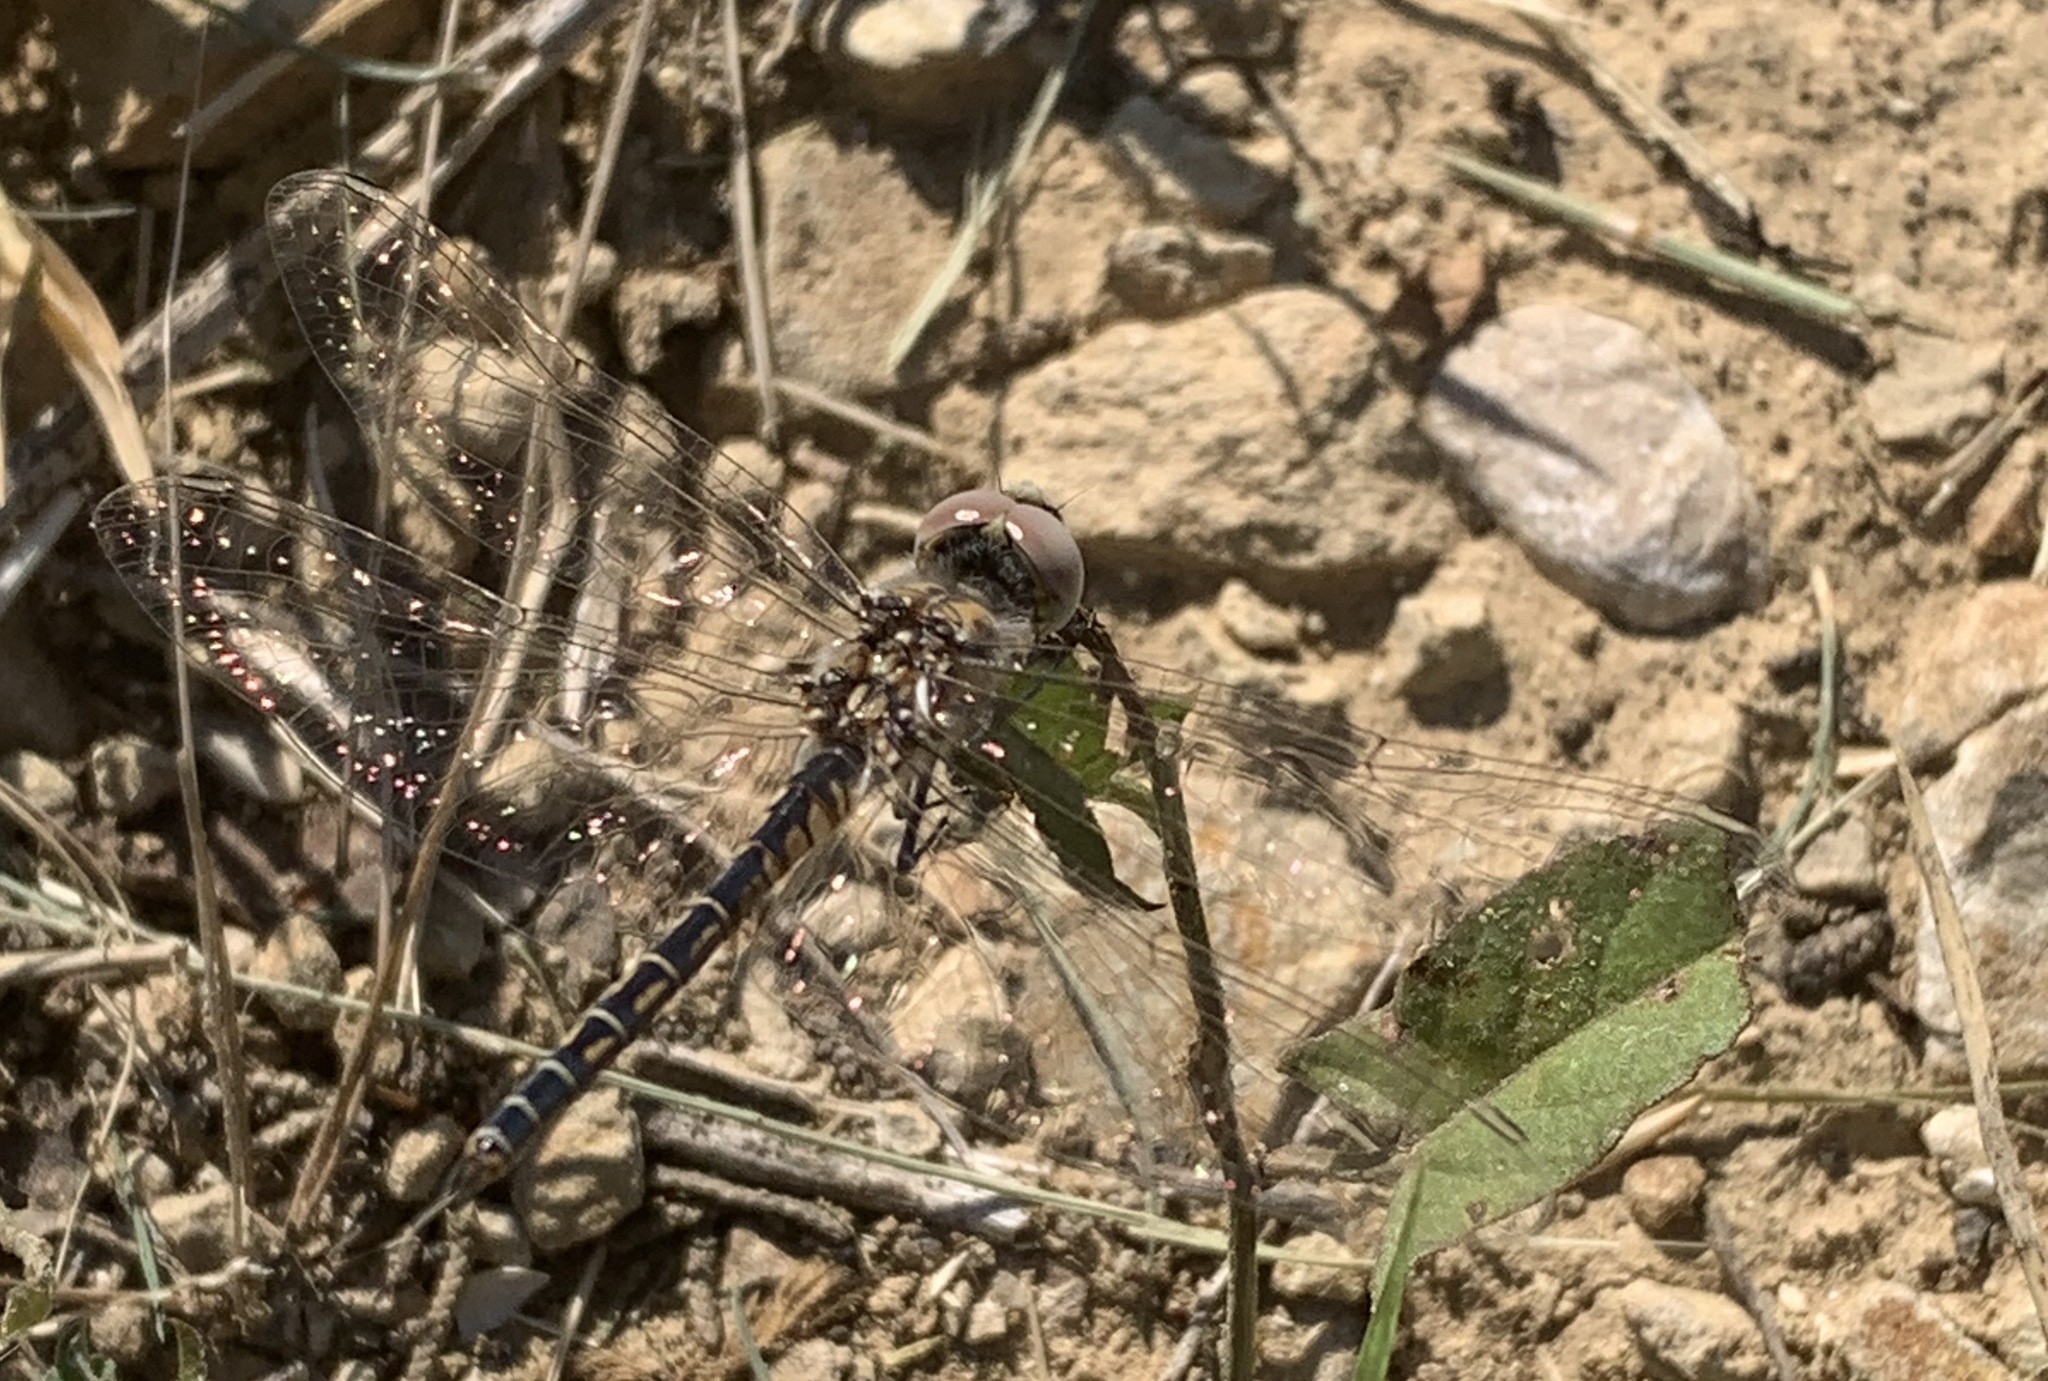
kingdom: Animalia
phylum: Arthropoda
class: Insecta
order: Odonata
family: Libellulidae
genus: Selysiothemis
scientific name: Selysiothemis nigra
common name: Black pennant
